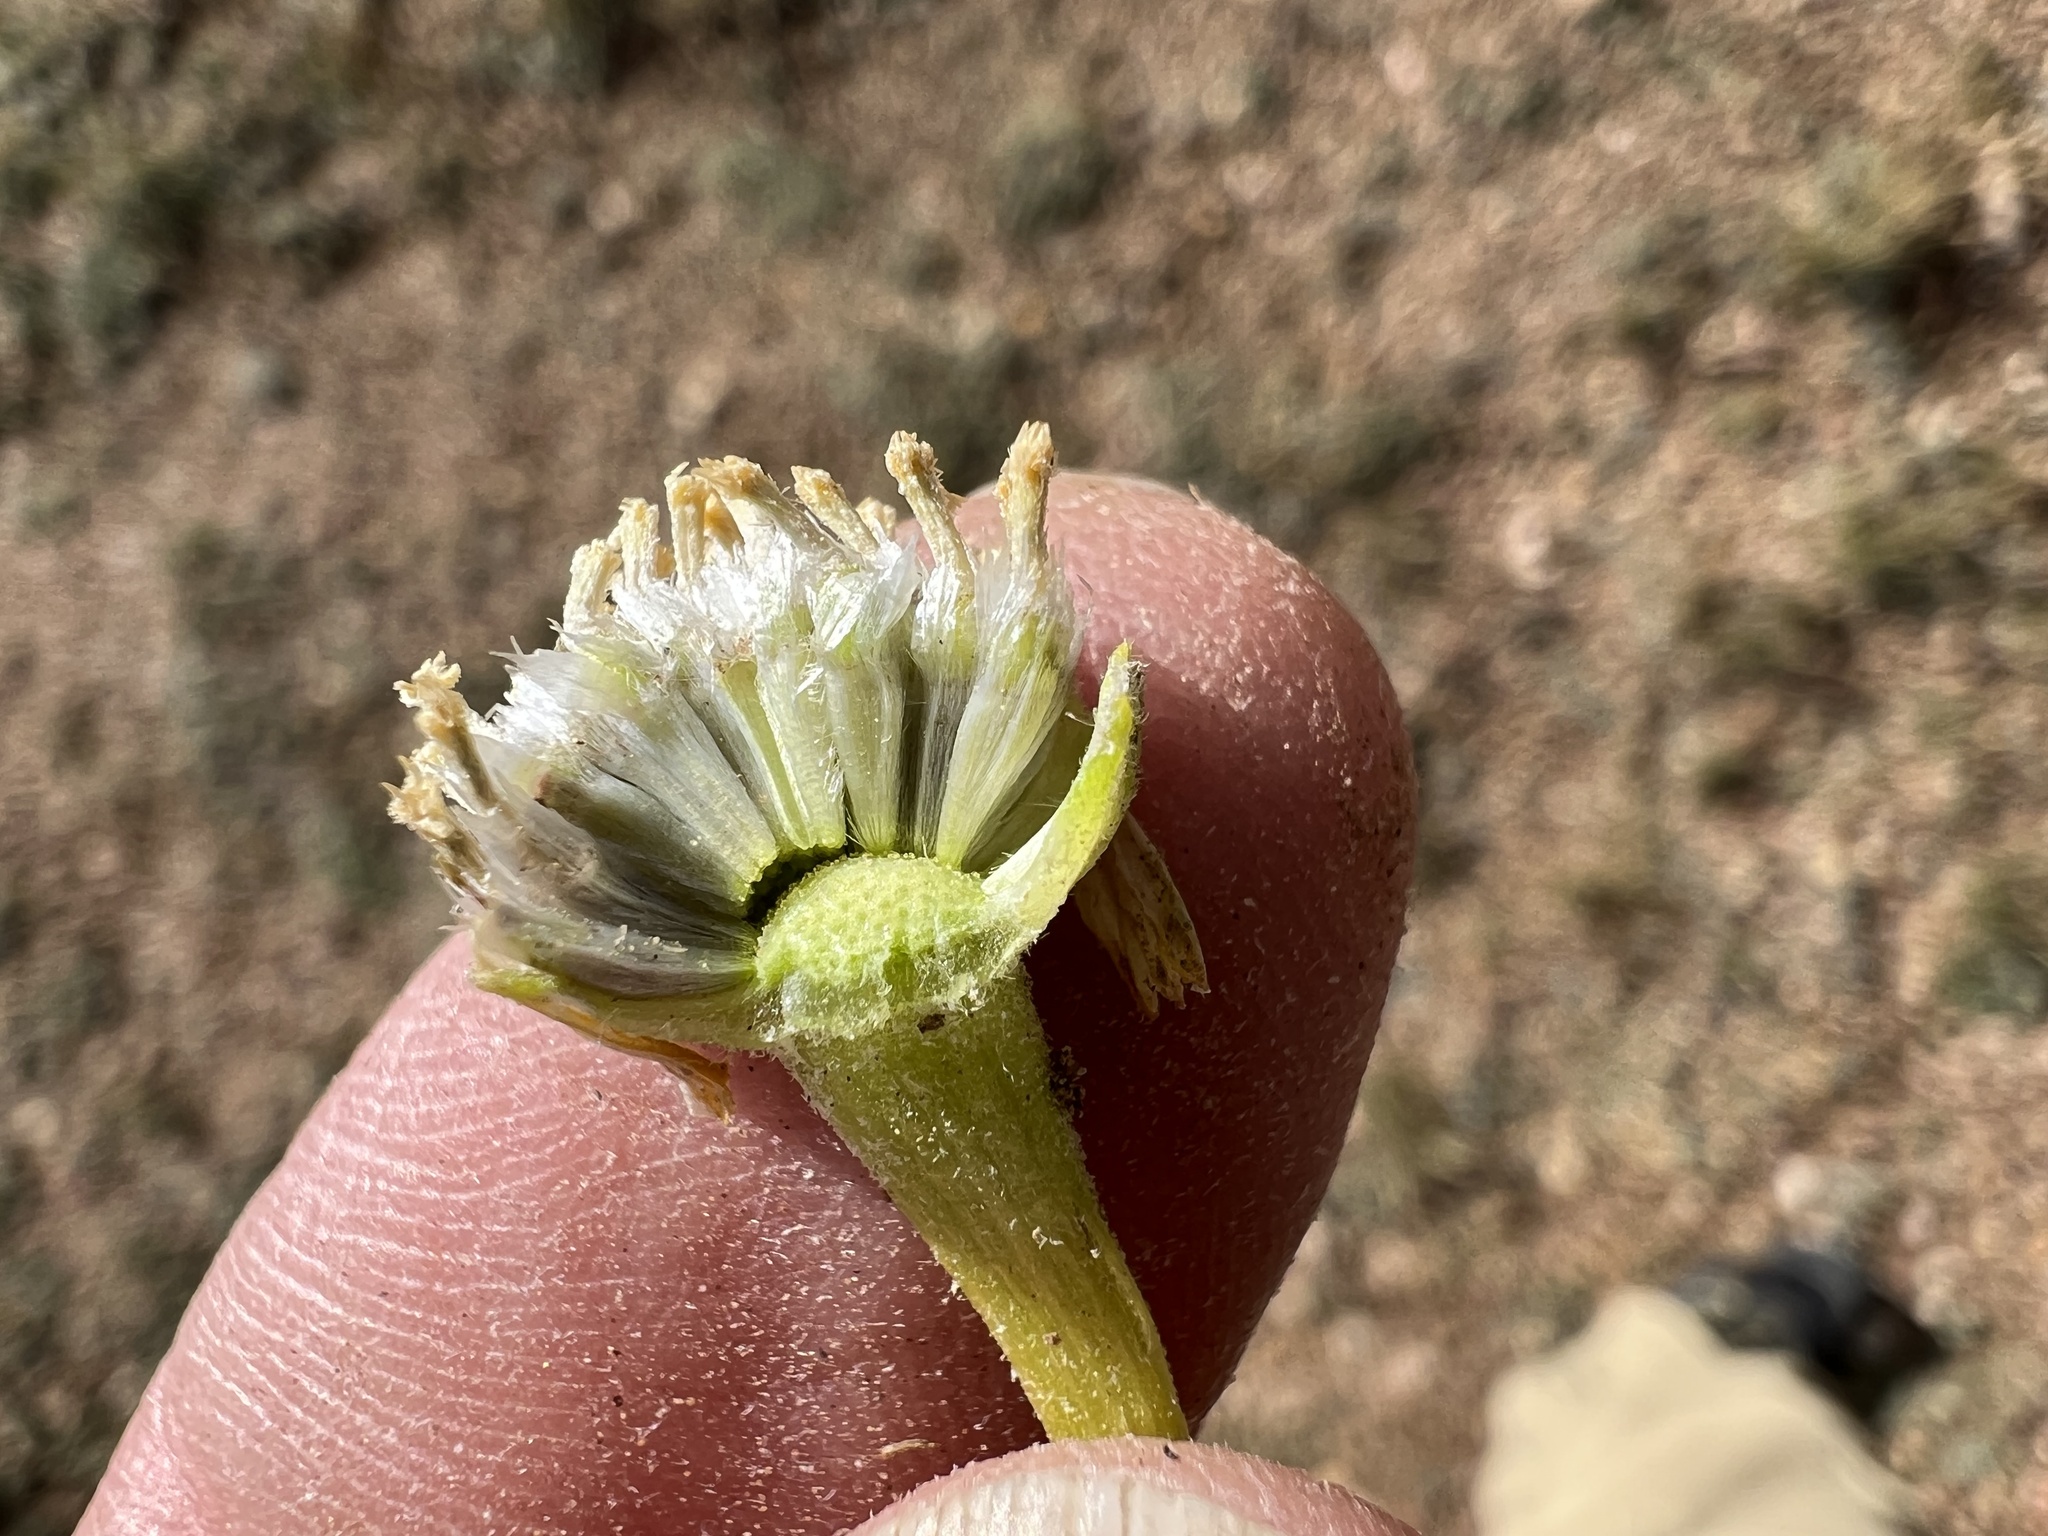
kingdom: Plantae
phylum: Tracheophyta
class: Magnoliopsida
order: Asterales
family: Asteraceae
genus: Hymenoxys
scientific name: Hymenoxys cooperi
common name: Cooper's bitterweed
